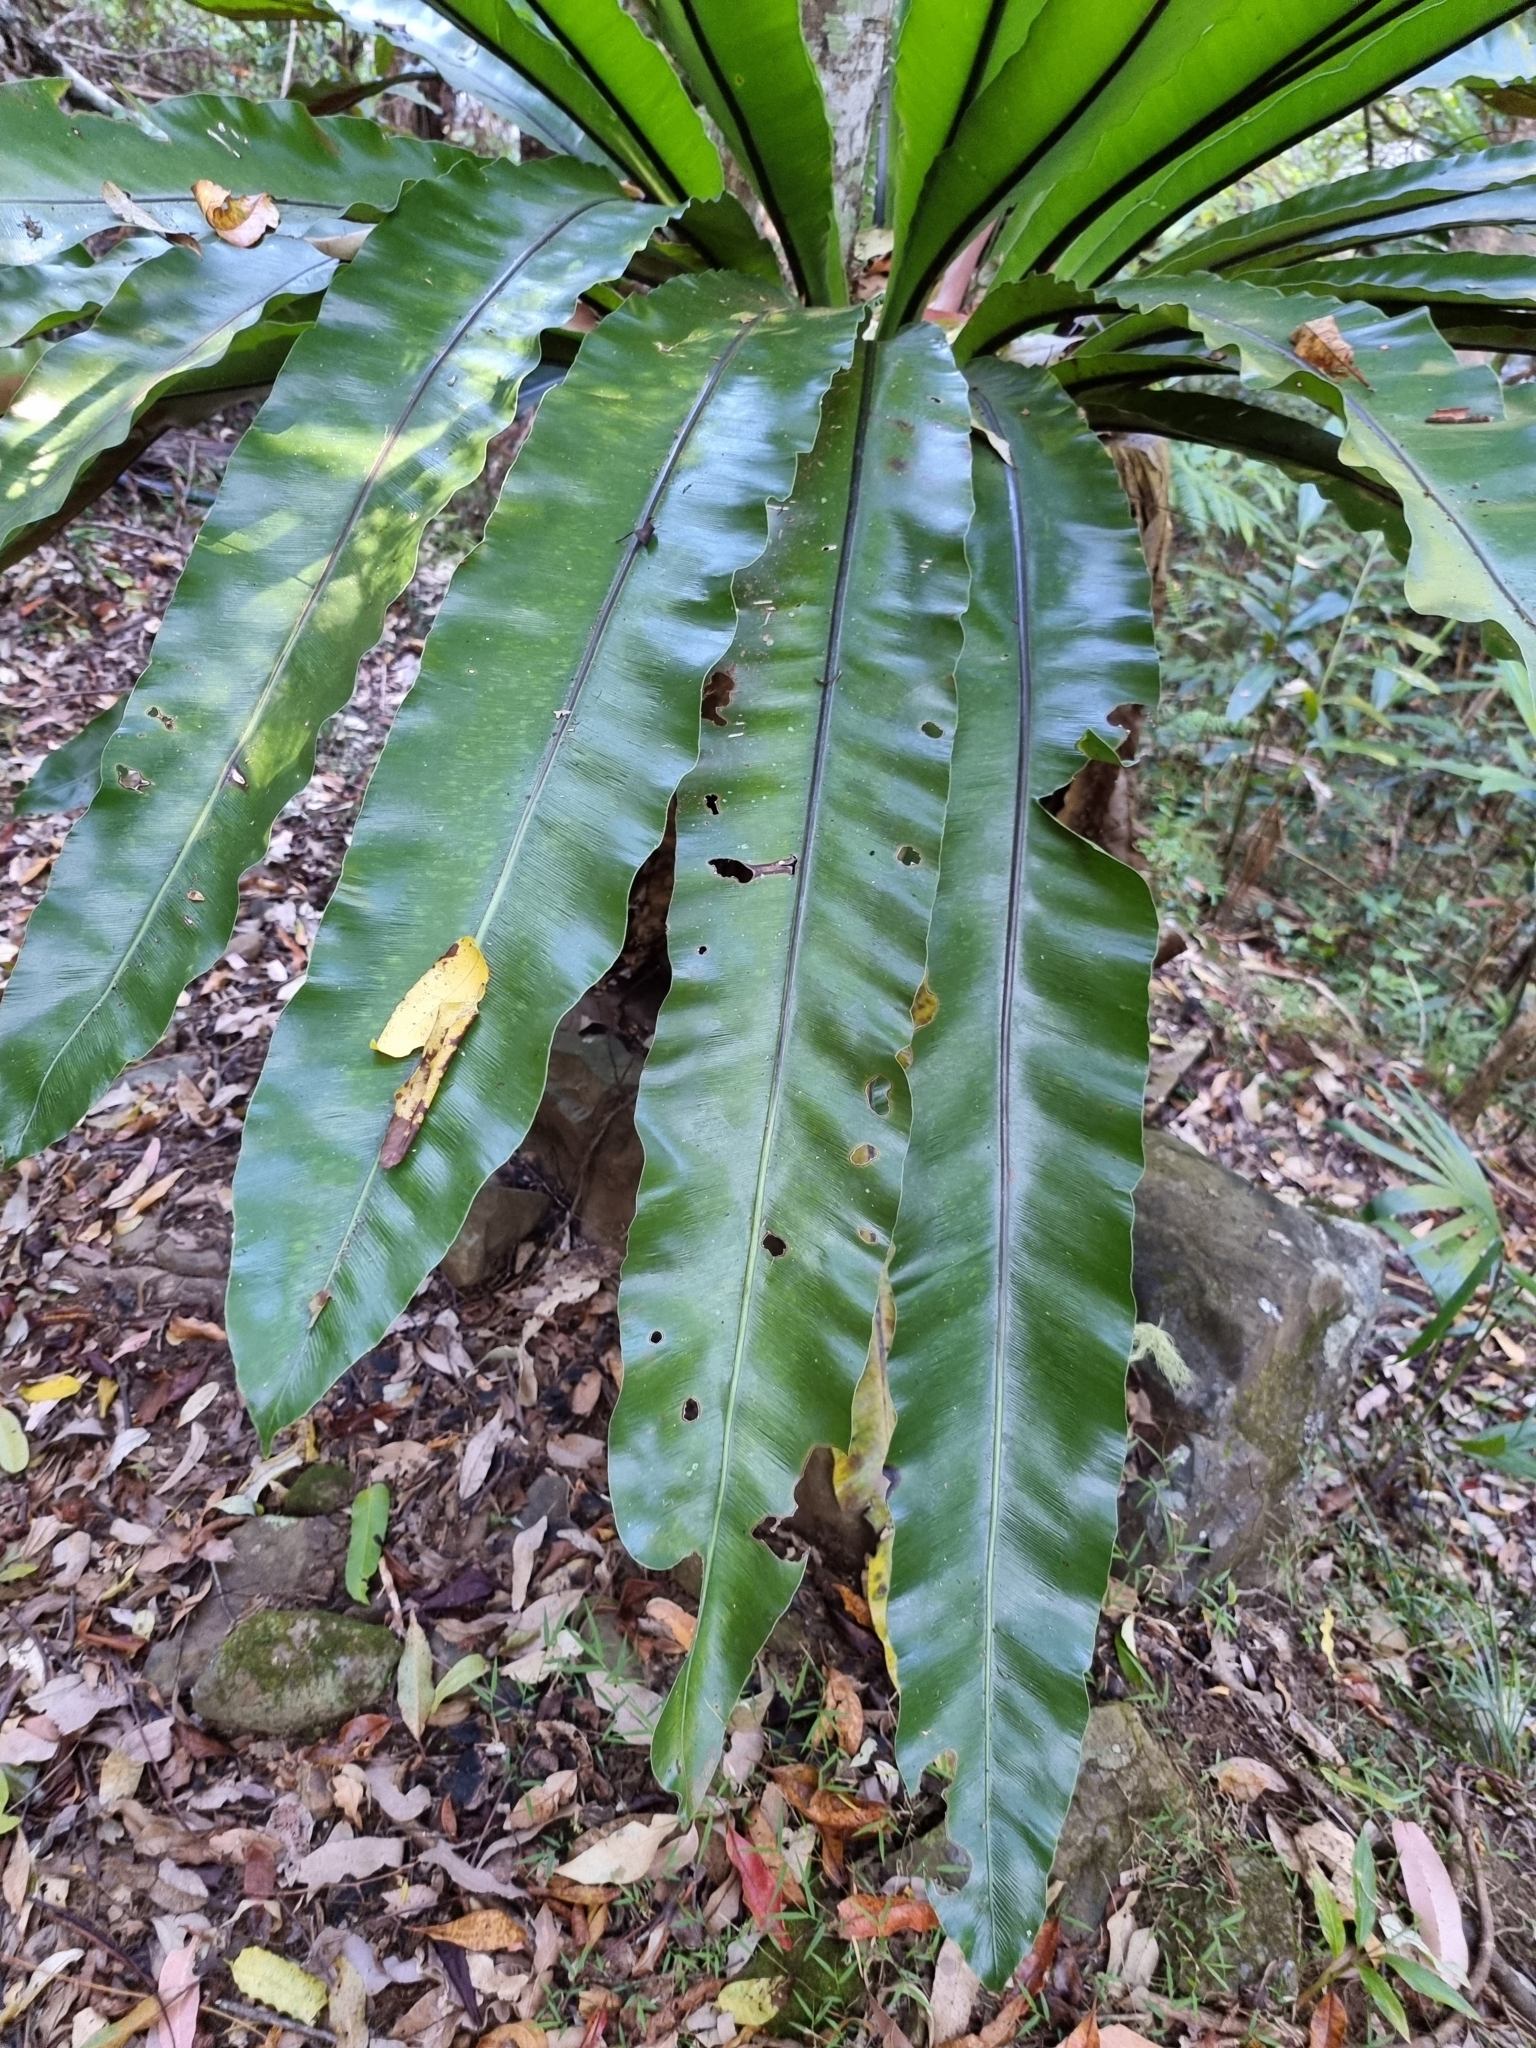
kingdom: Plantae
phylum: Tracheophyta
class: Polypodiopsida
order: Polypodiales
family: Aspleniaceae
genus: Asplenium
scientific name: Asplenium australasicum
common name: Bird's-nest fern
